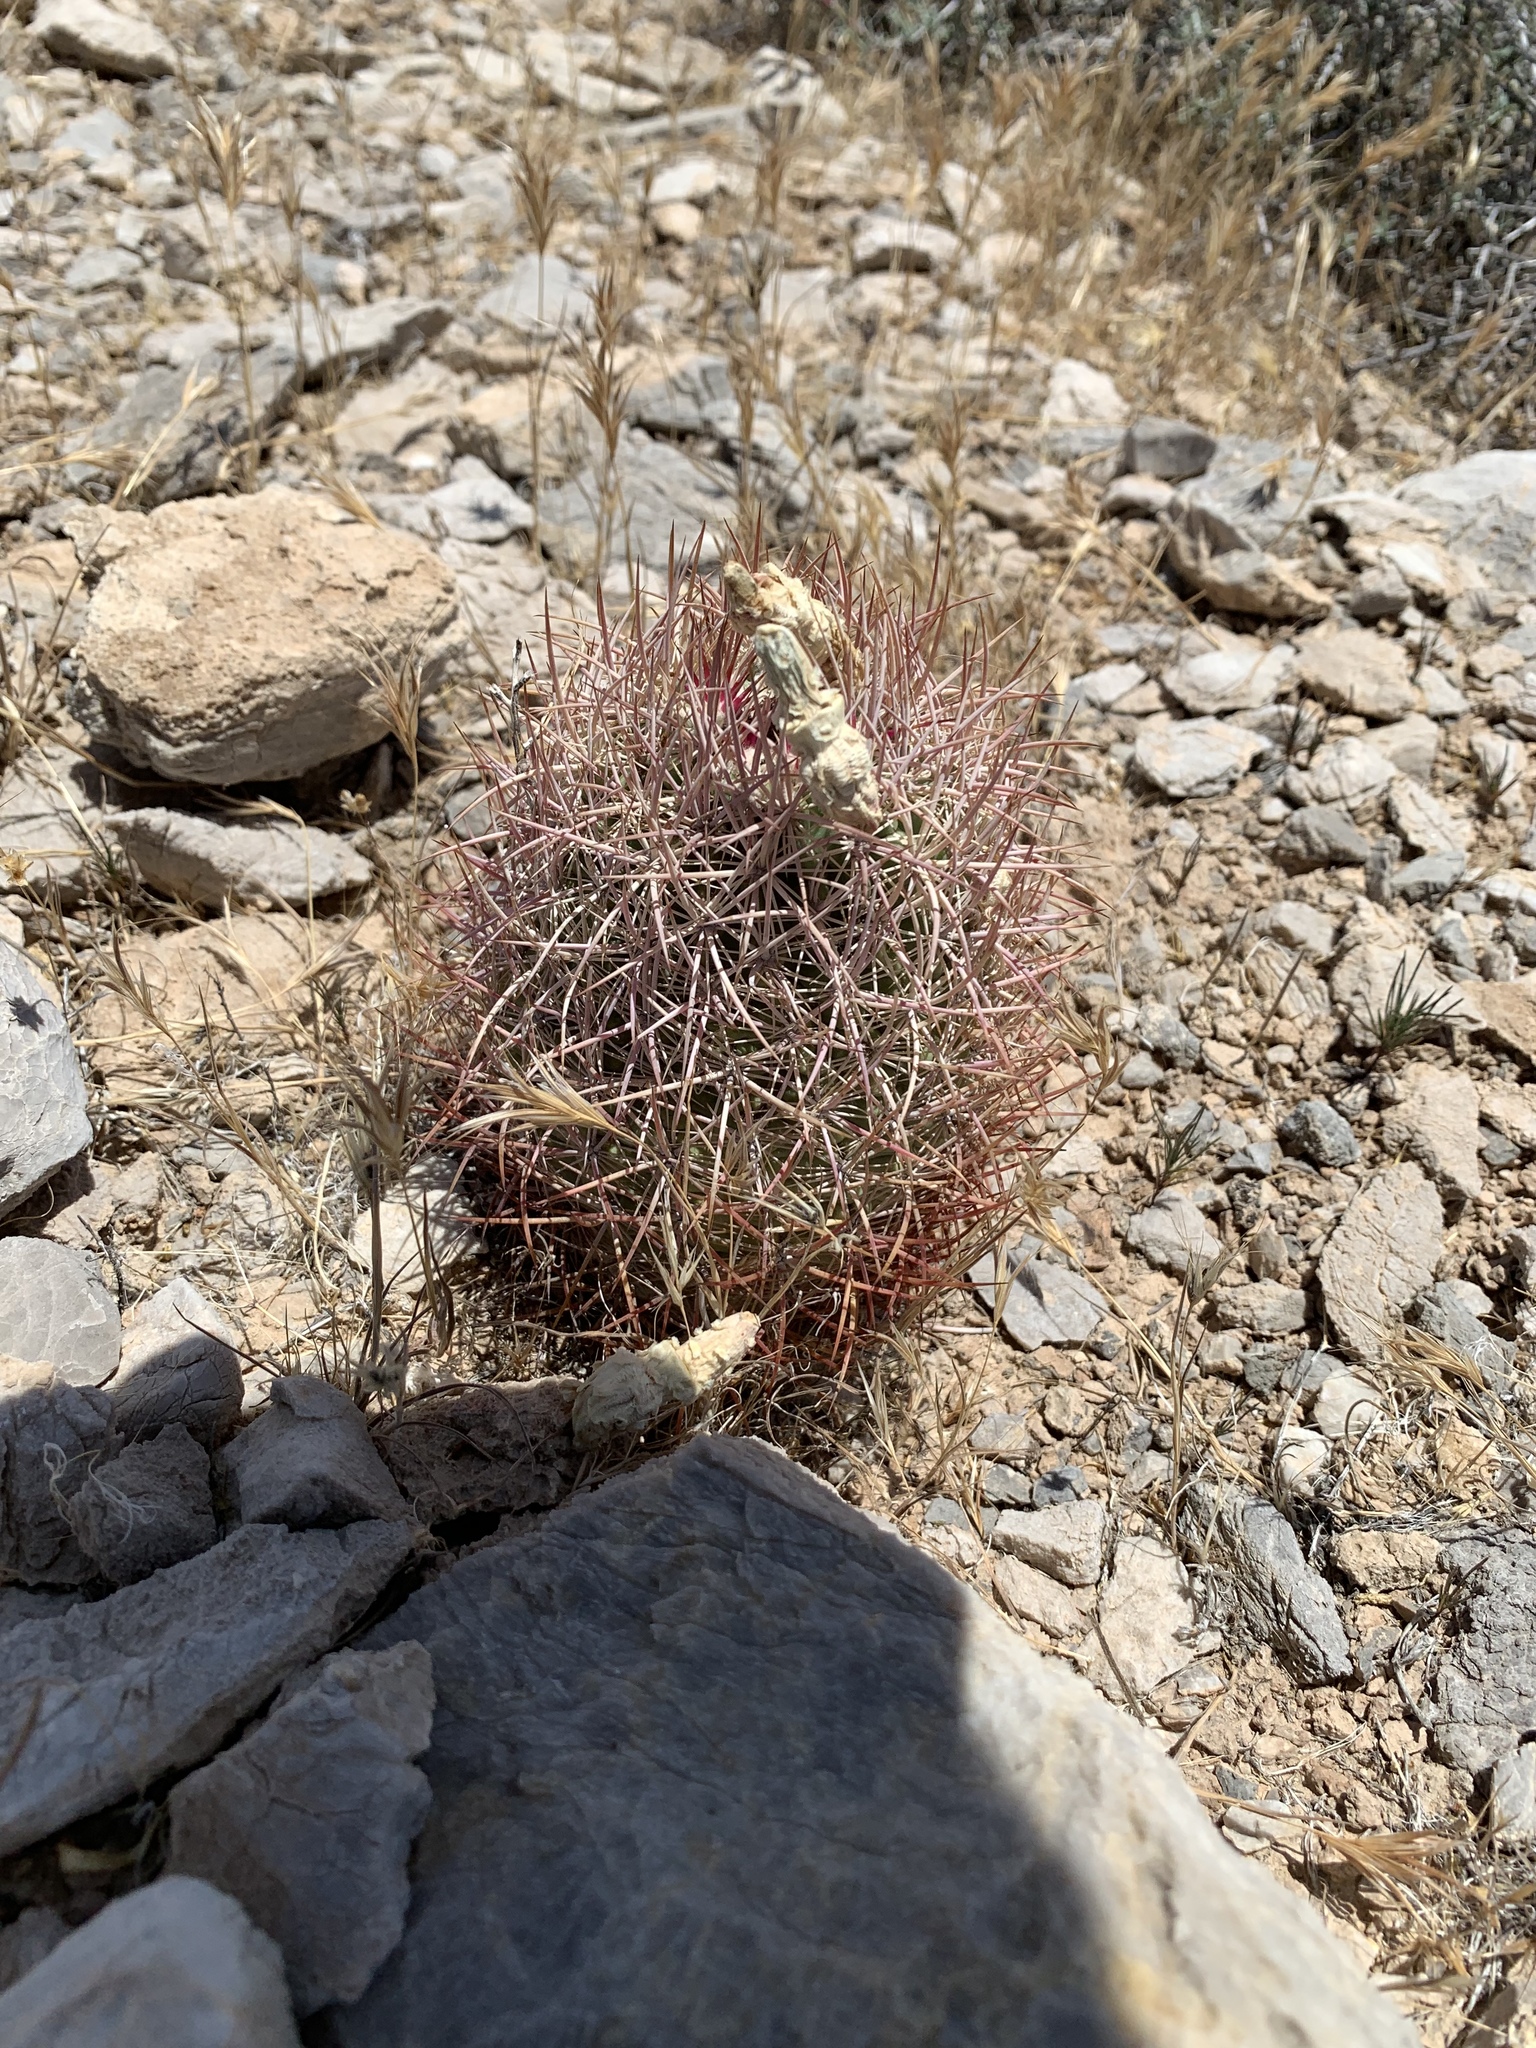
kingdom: Plantae
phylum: Tracheophyta
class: Magnoliopsida
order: Caryophyllales
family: Cactaceae
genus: Sclerocactus
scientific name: Sclerocactus johnsonii
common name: Eight-spine fishhook cactus
